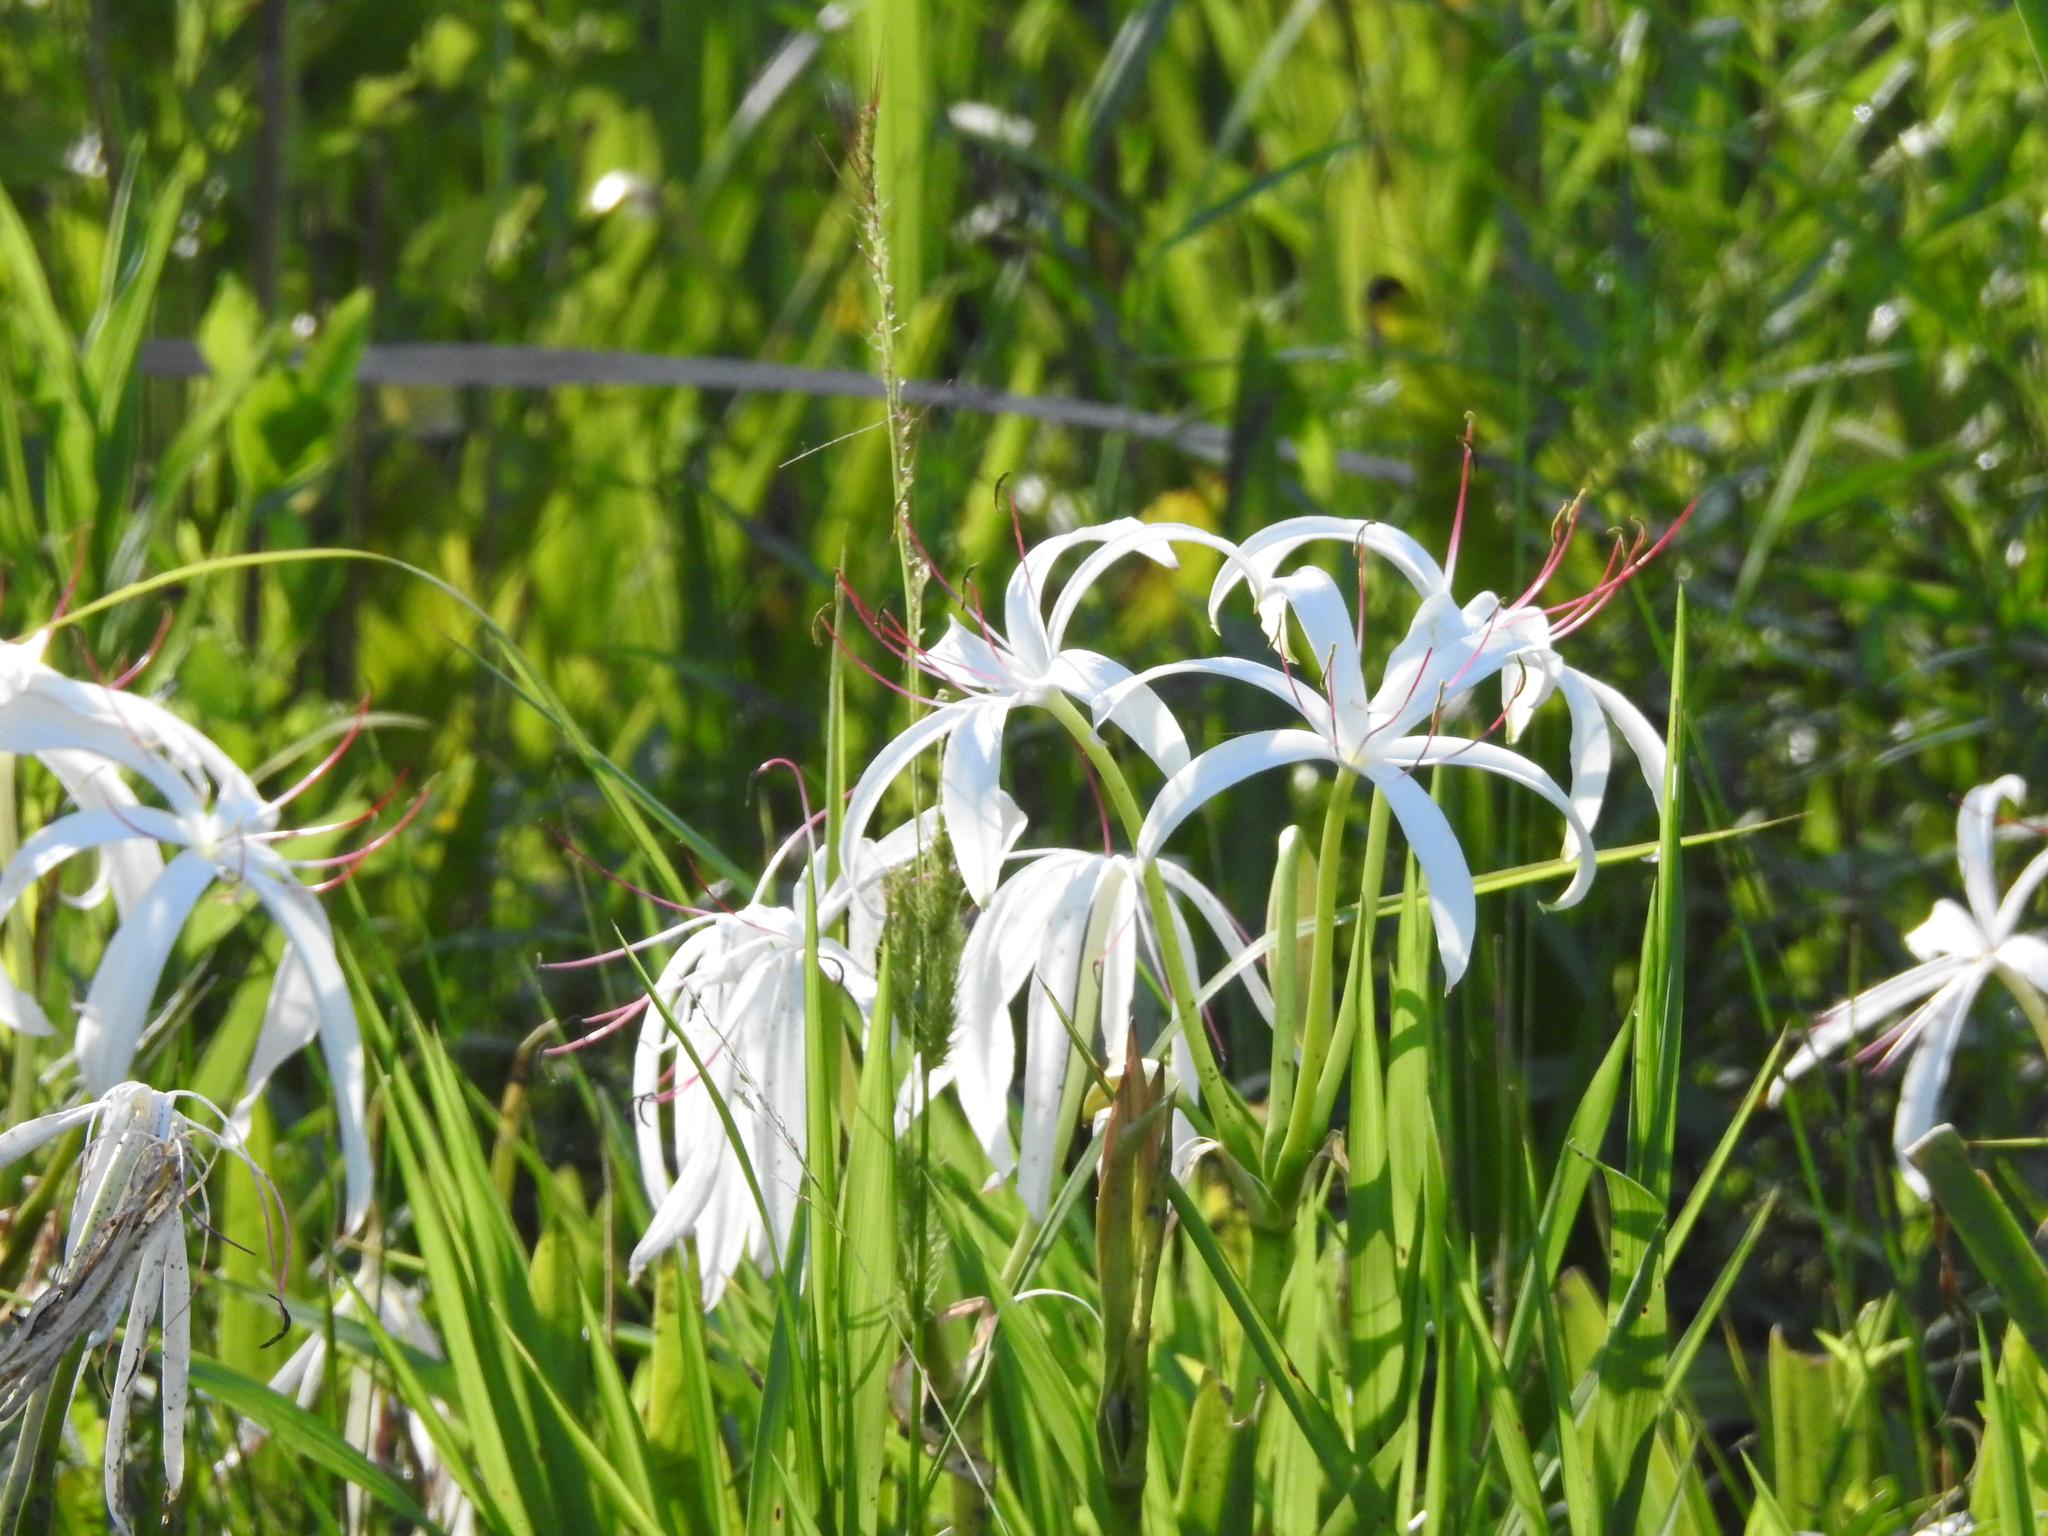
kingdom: Plantae
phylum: Tracheophyta
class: Liliopsida
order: Asparagales
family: Amaryllidaceae
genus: Crinum
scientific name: Crinum americanum
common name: Florida swamp-lily
